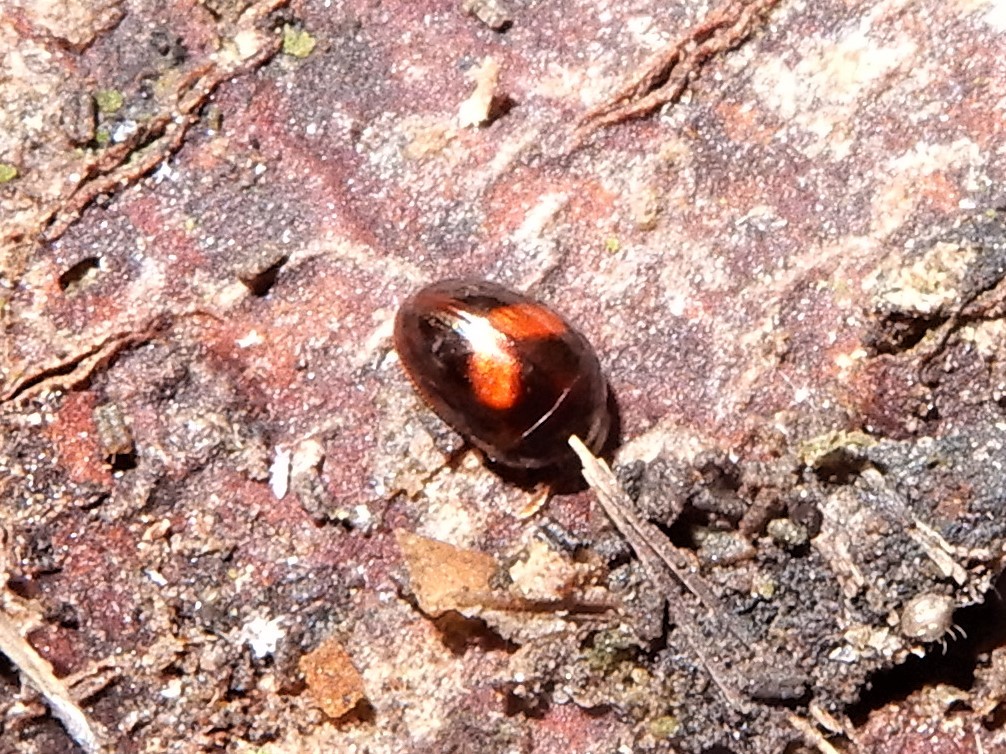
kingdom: Animalia
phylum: Arthropoda
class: Insecta
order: Coleoptera
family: Phalacridae
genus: Austroporus
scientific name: Austroporus
